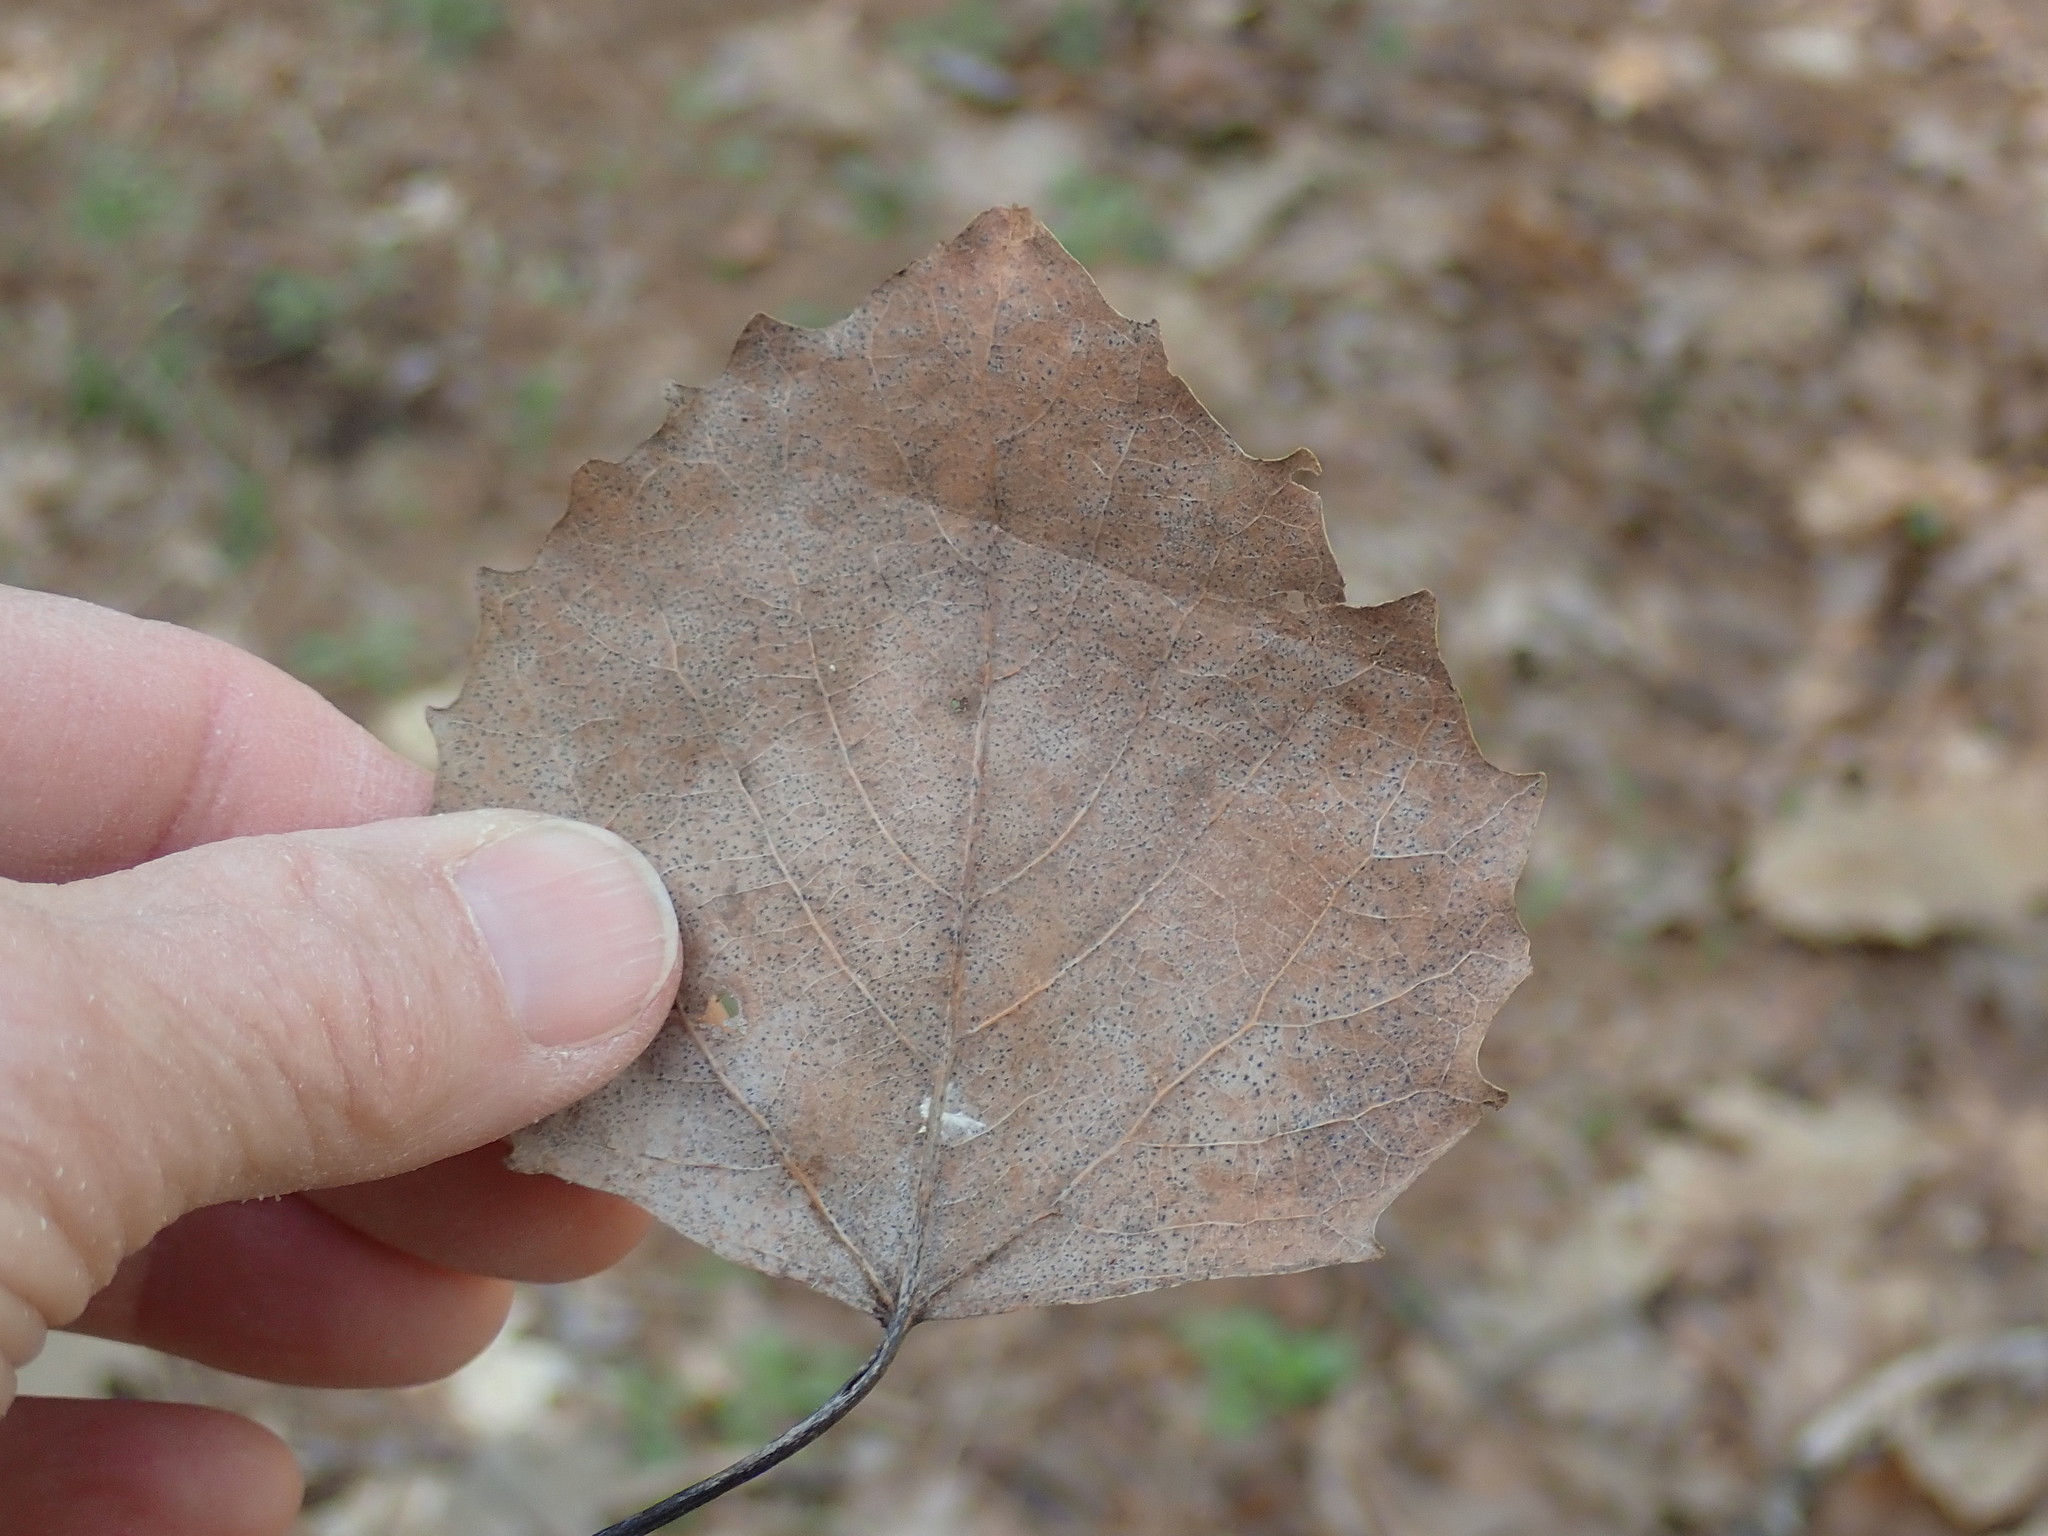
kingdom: Plantae
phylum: Tracheophyta
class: Magnoliopsida
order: Malpighiales
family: Salicaceae
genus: Populus
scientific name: Populus grandidentata
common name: Bigtooth aspen
